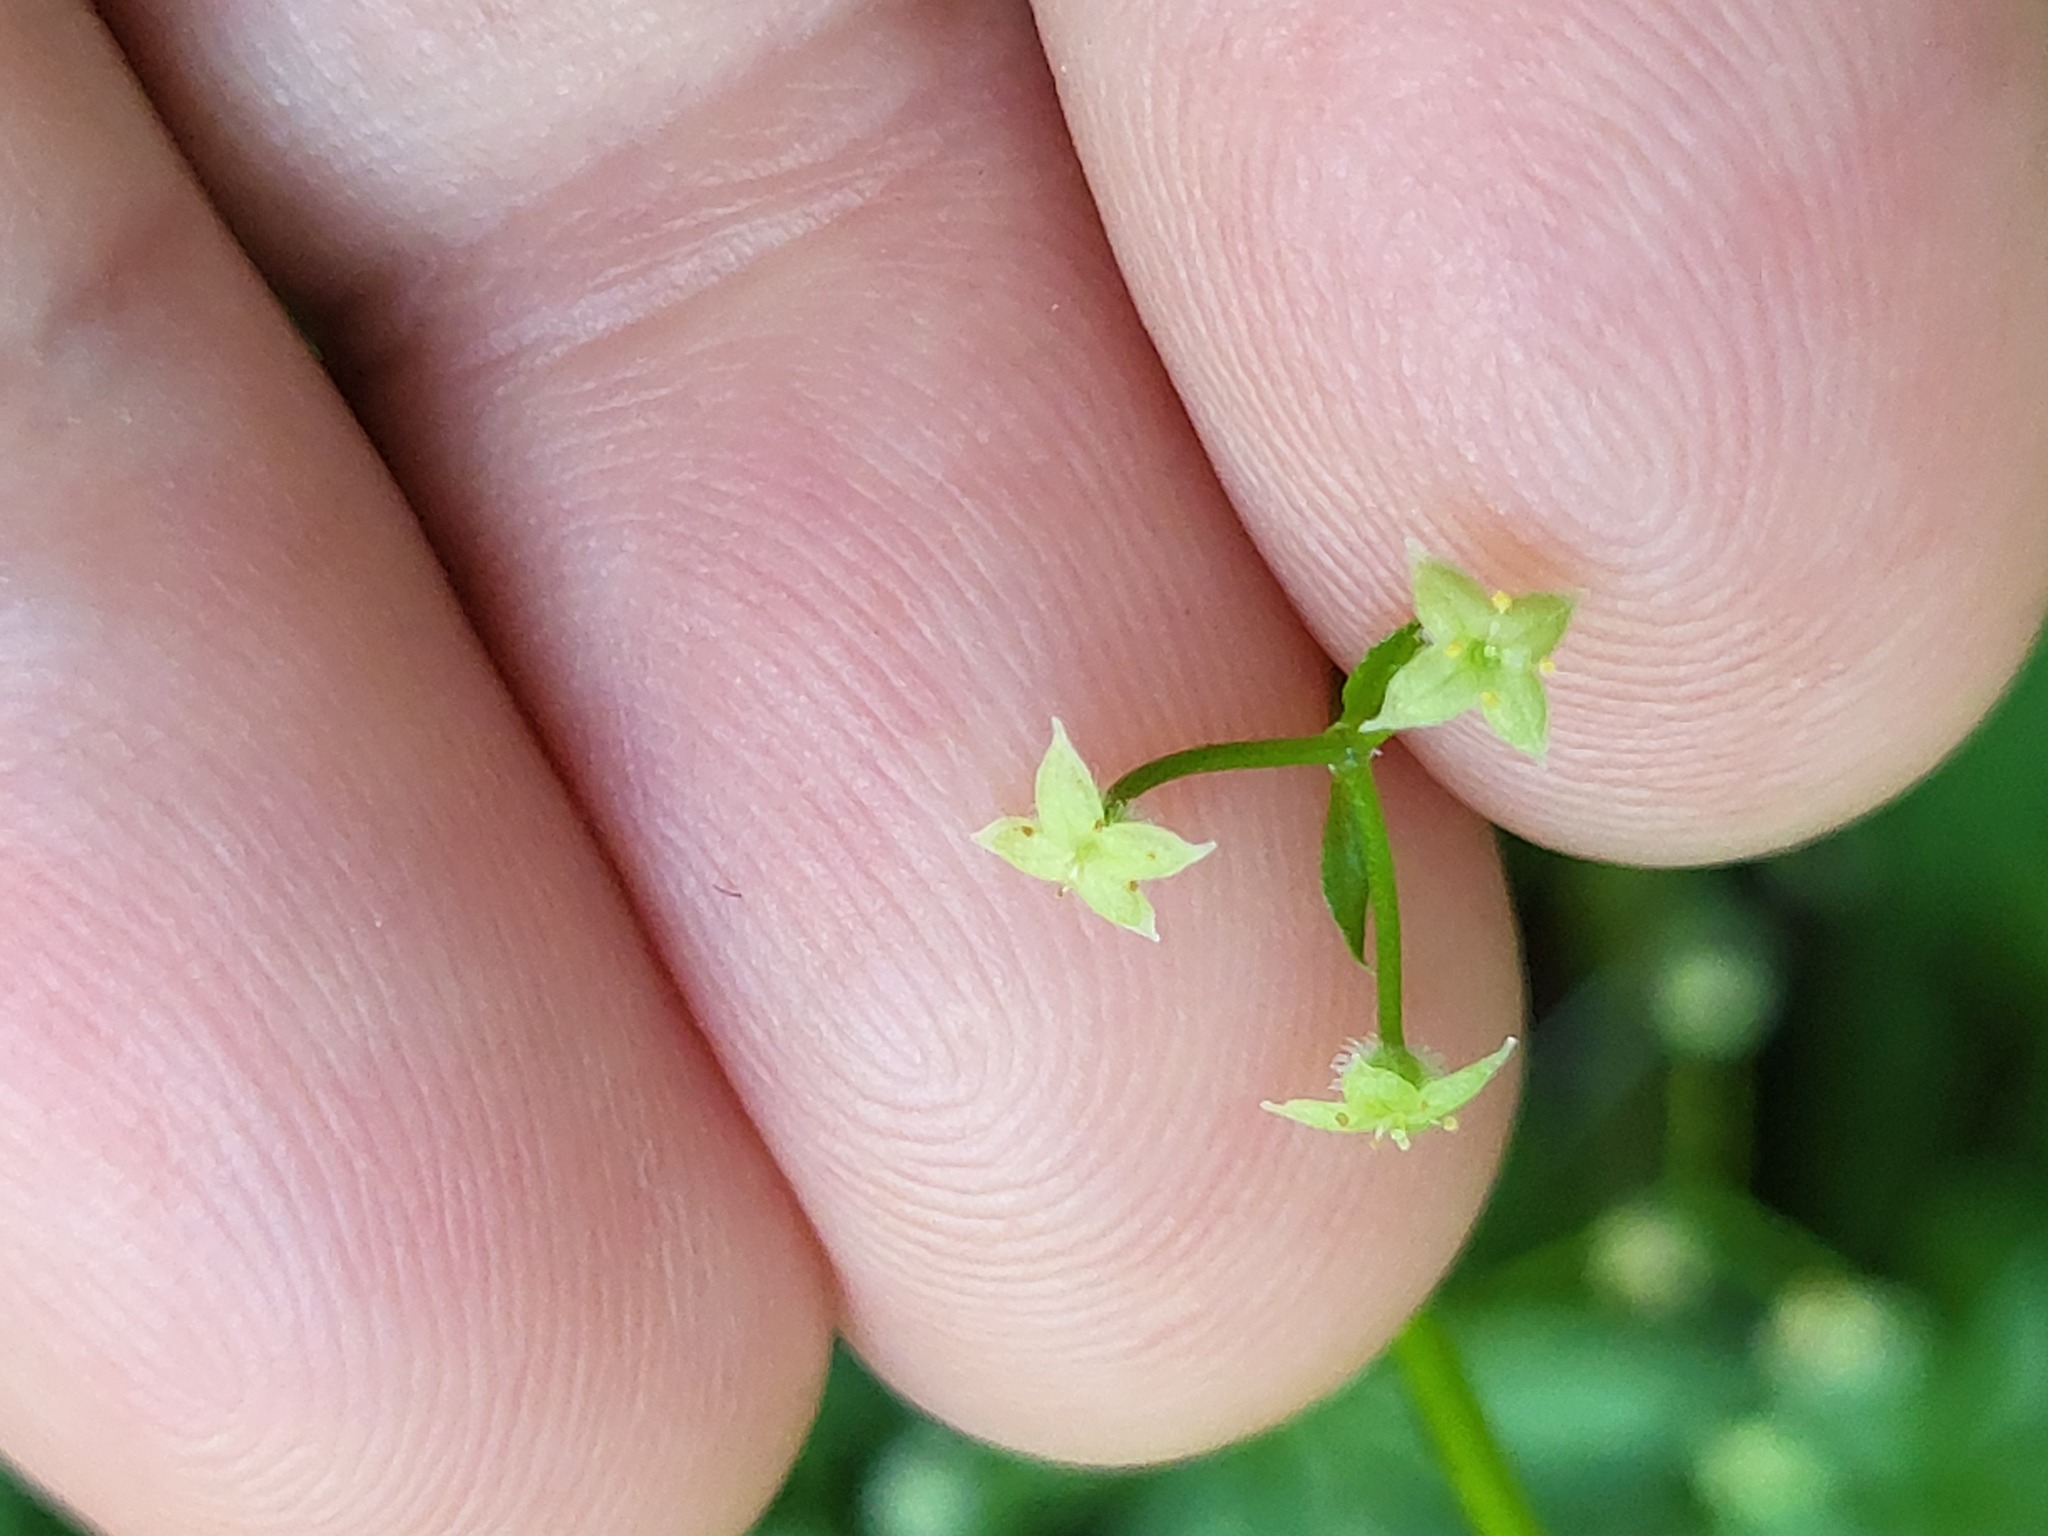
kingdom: Plantae
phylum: Tracheophyta
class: Magnoliopsida
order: Gentianales
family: Rubiaceae
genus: Galium
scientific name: Galium triflorum
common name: Fragrant bedstraw
